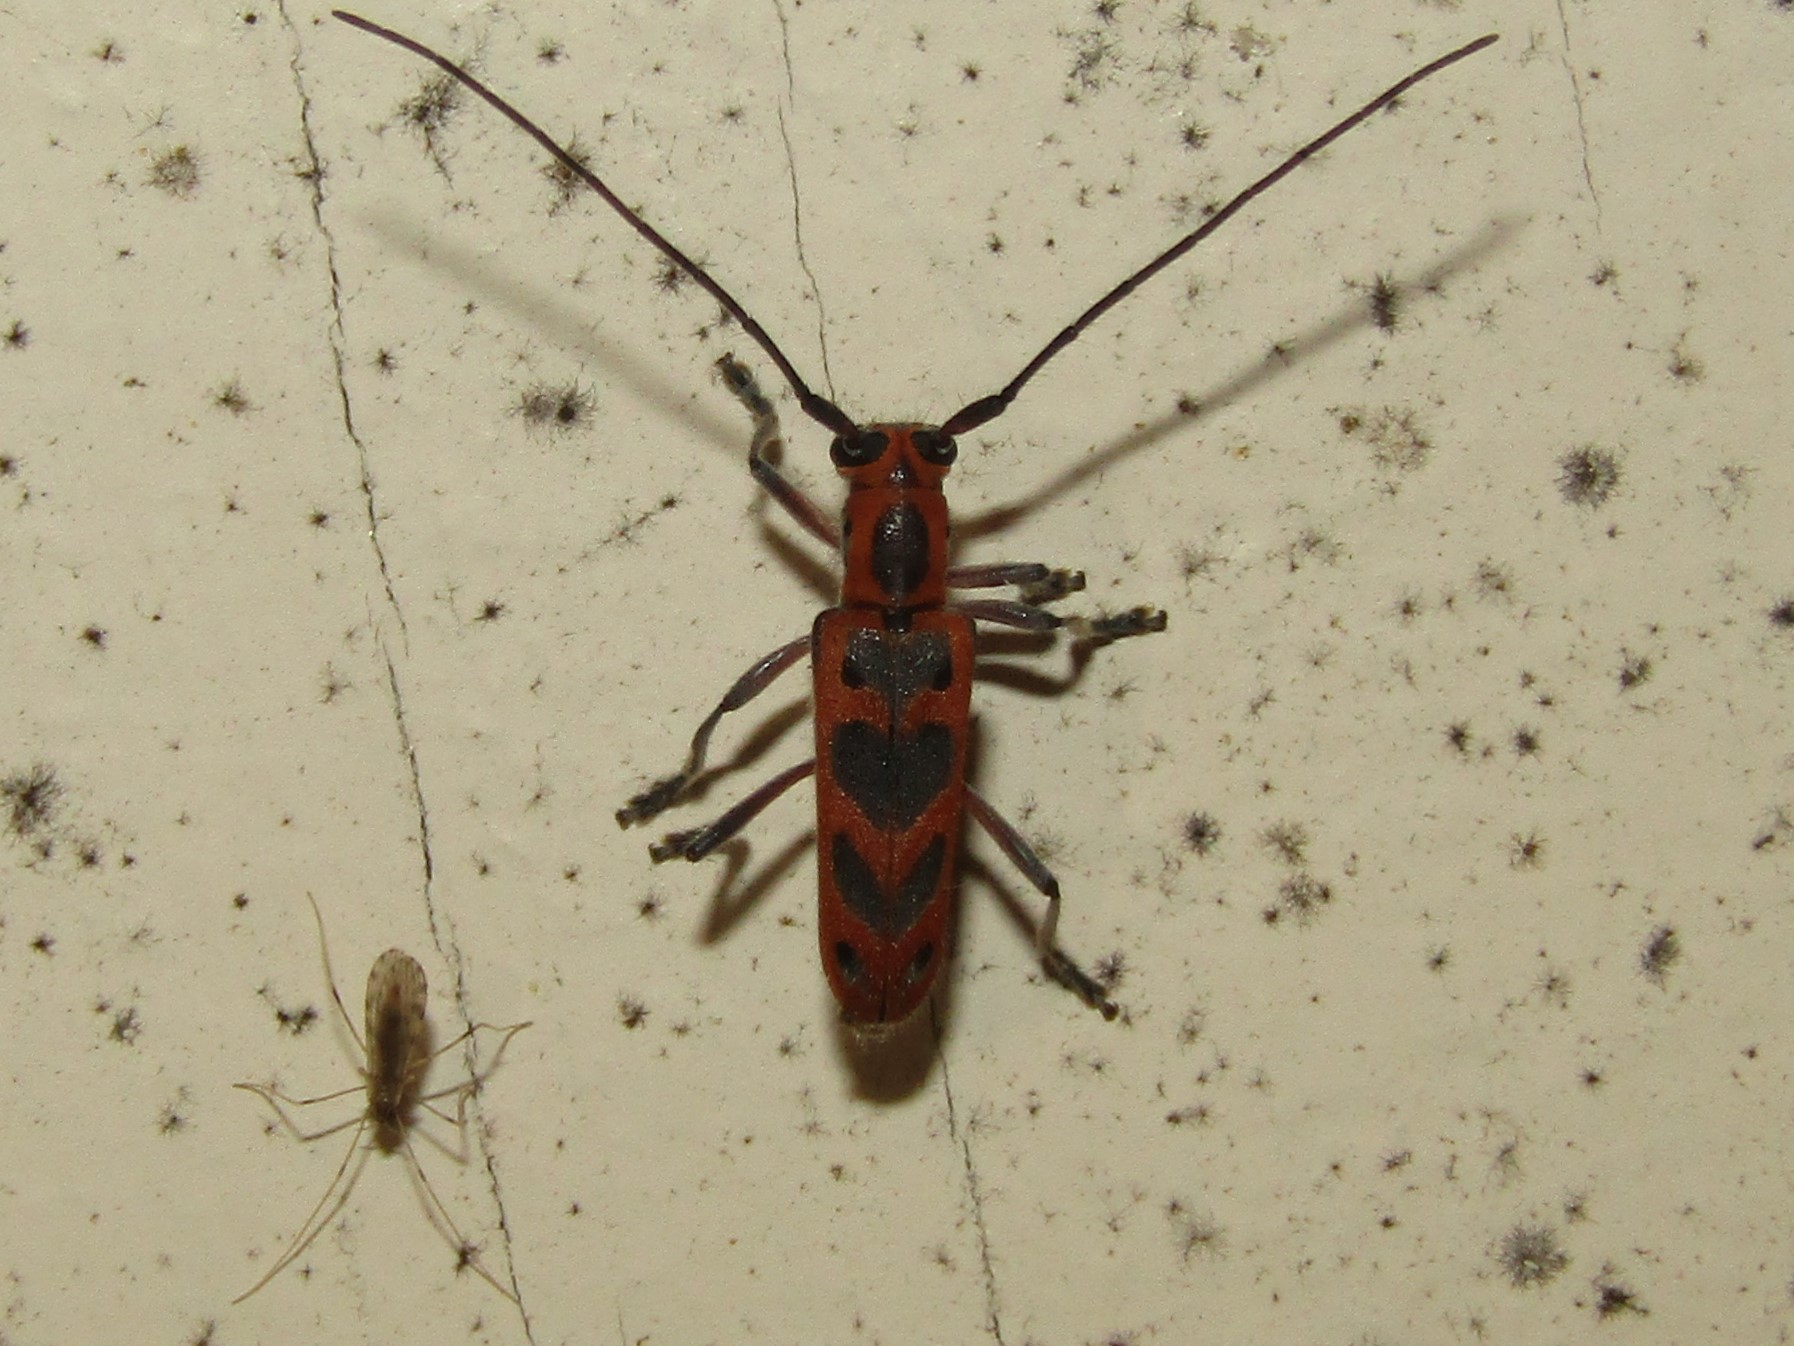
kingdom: Animalia
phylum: Arthropoda
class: Insecta
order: Coleoptera
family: Cerambycidae
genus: Saperda
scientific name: Saperda tridentata
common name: Elm borer
